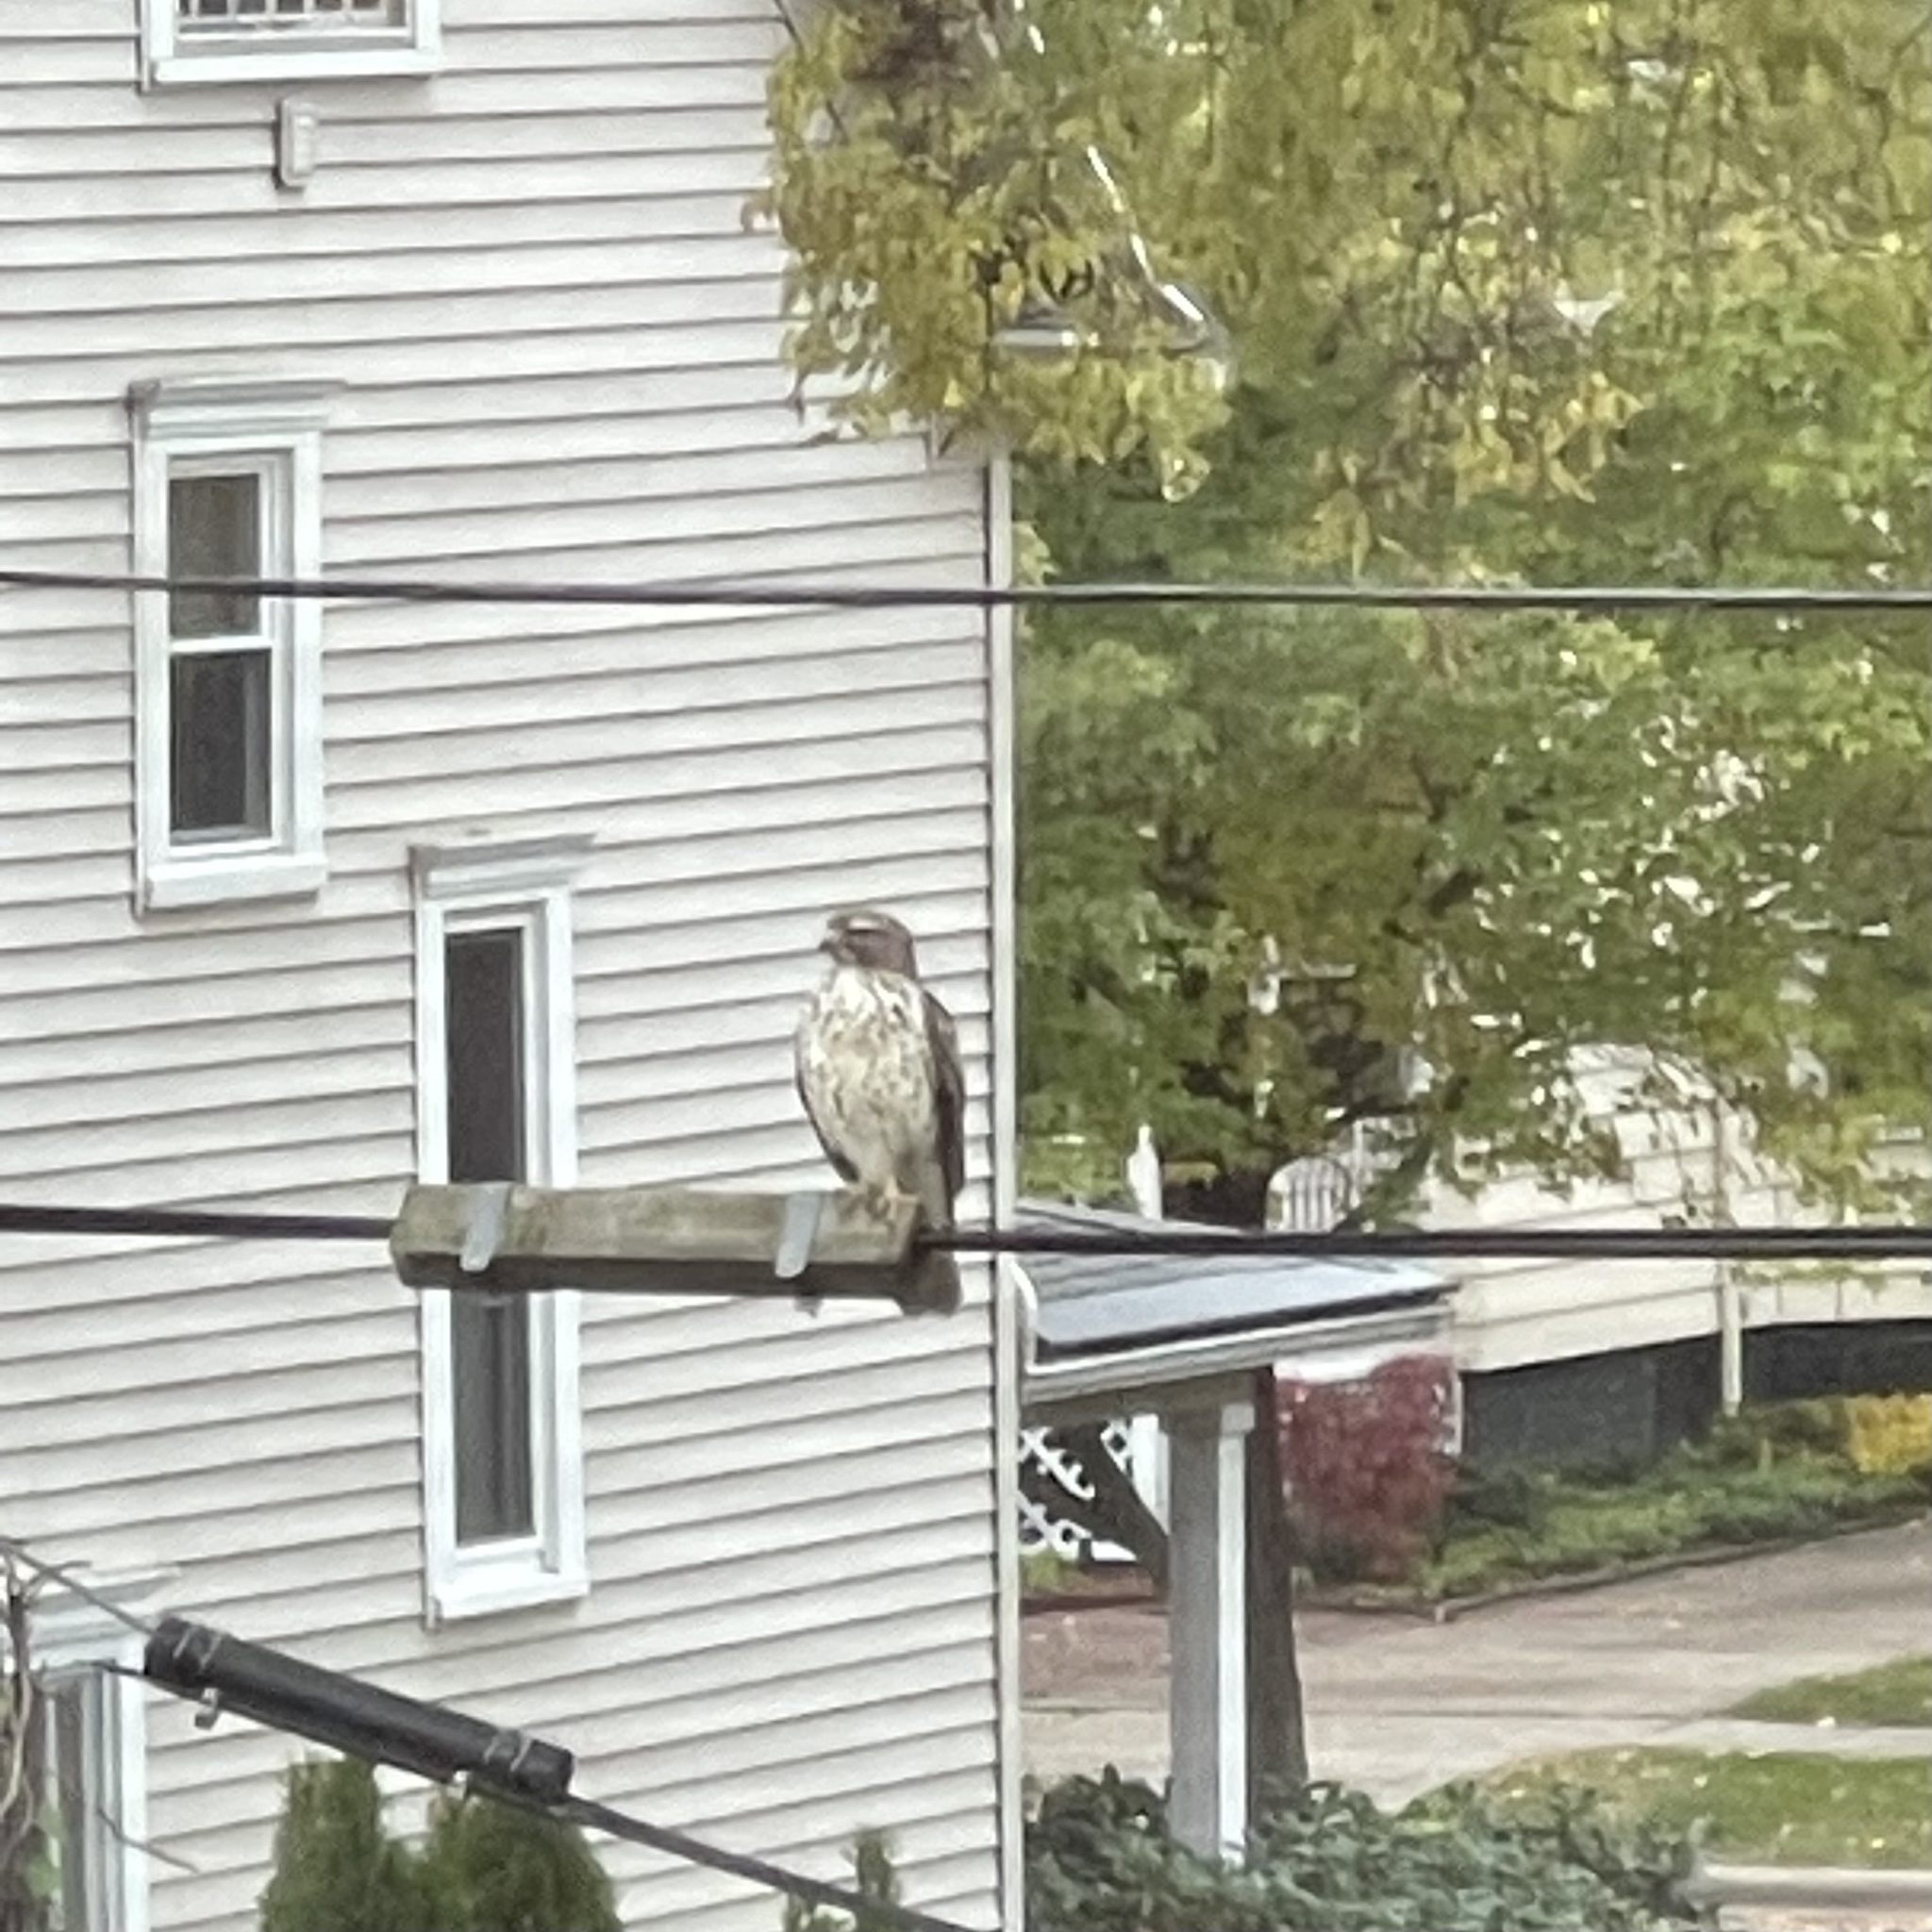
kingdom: Animalia
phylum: Chordata
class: Aves
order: Accipitriformes
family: Accipitridae
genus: Buteo
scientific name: Buteo lineatus
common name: Red-shouldered hawk
